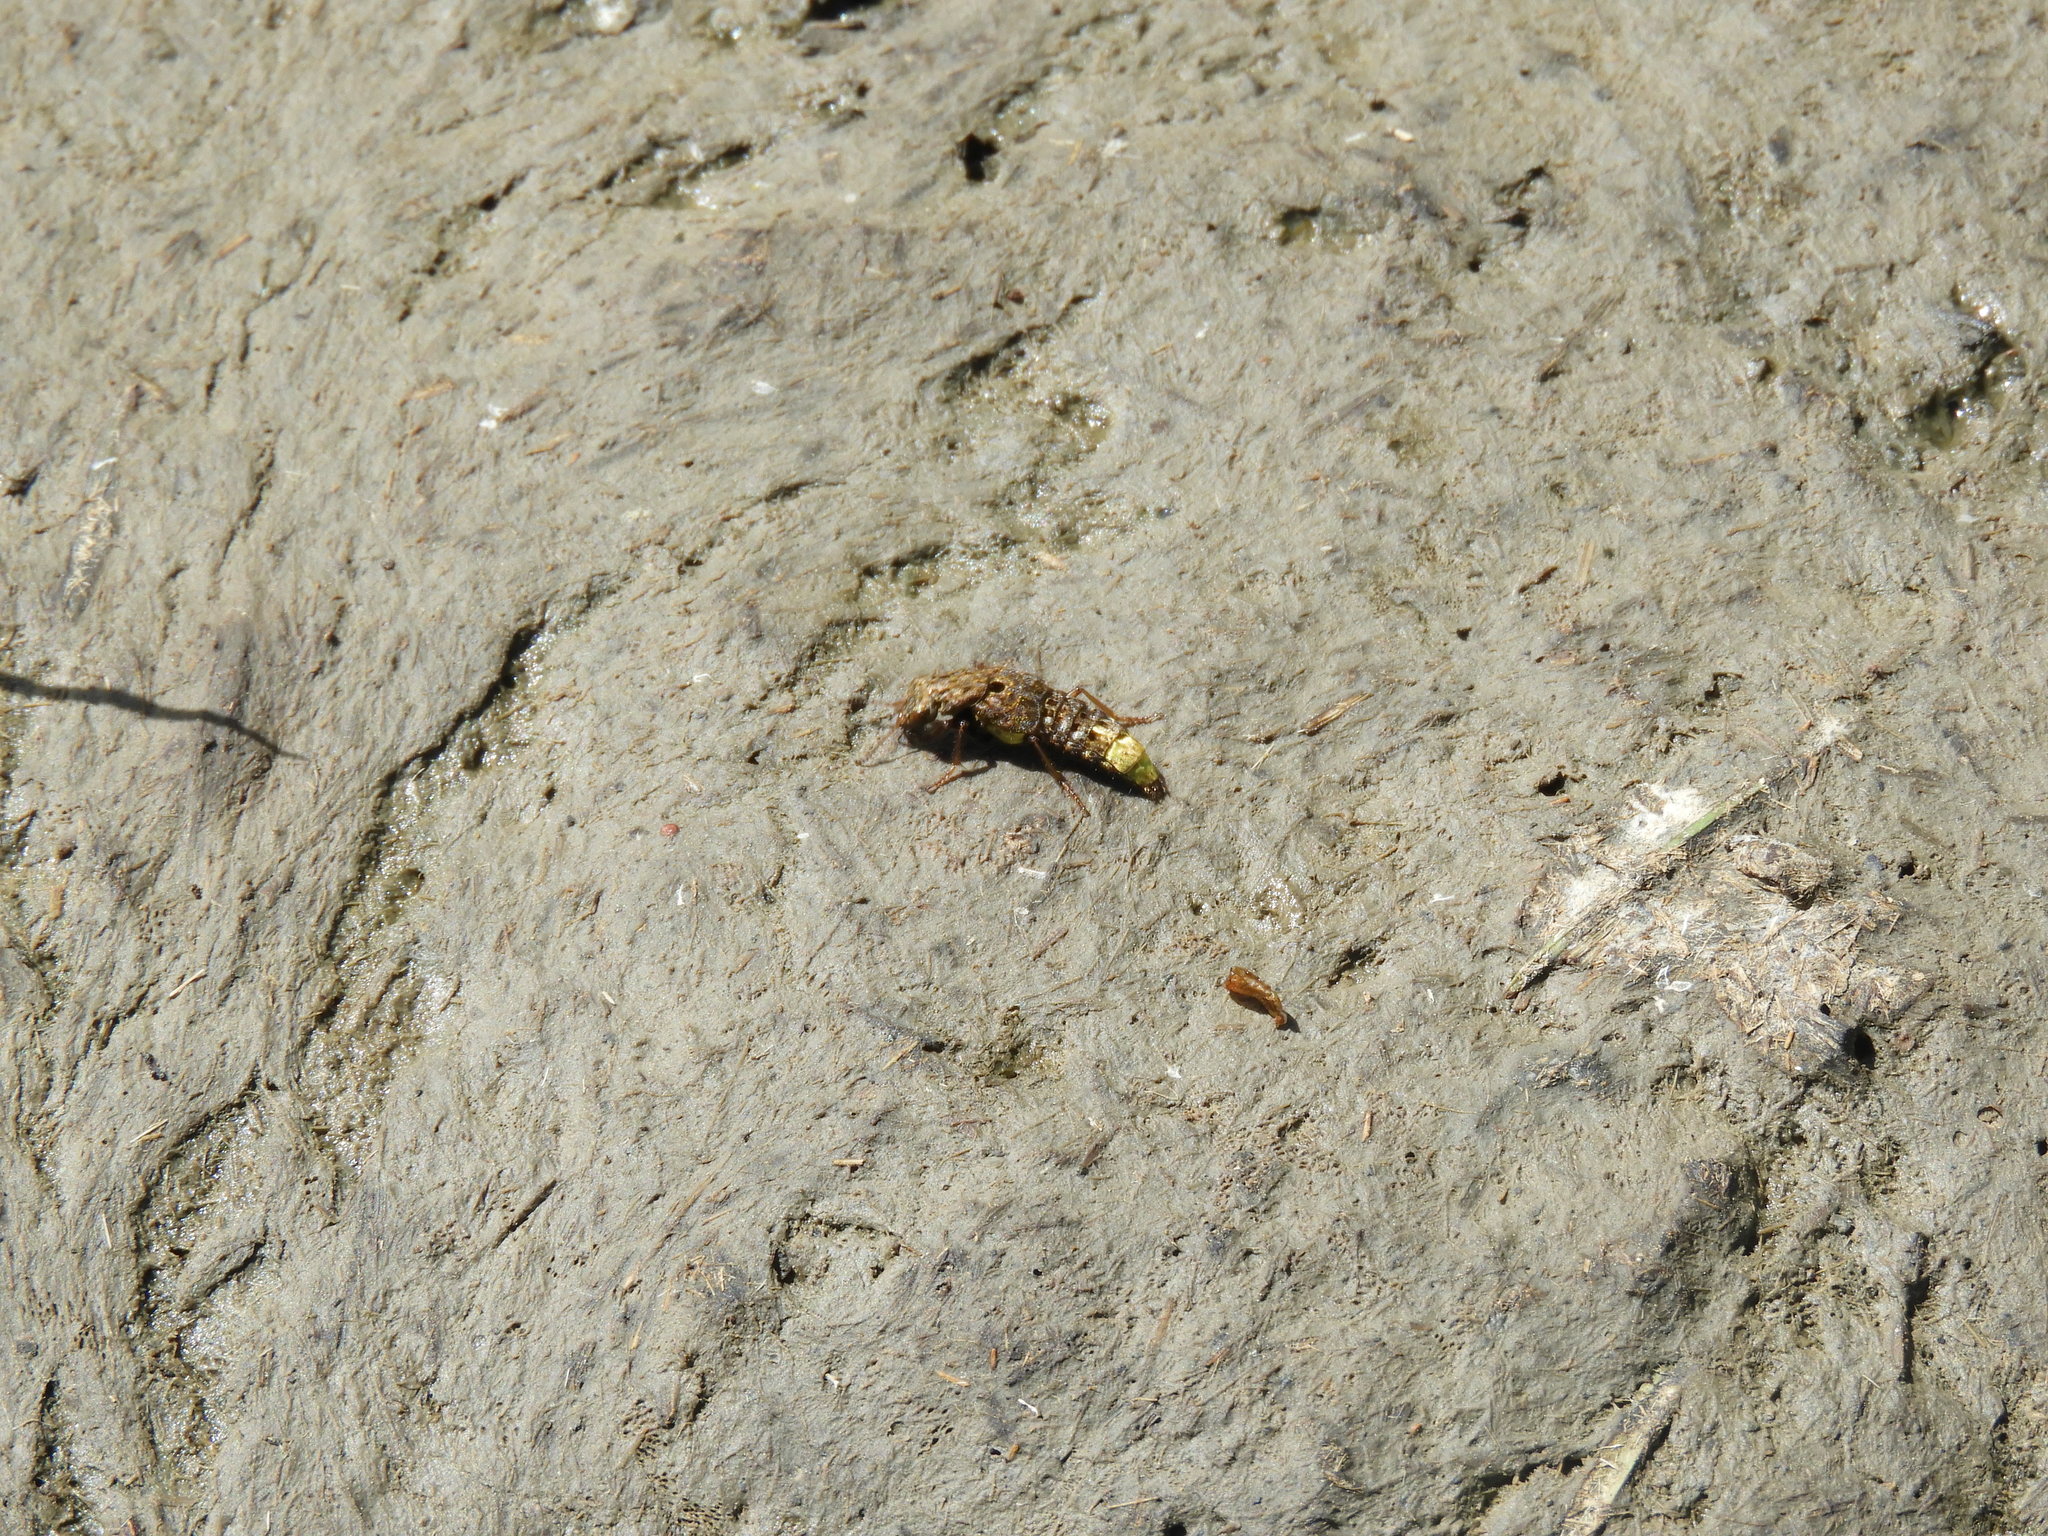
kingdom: Animalia
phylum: Arthropoda
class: Insecta
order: Coleoptera
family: Staphylinidae
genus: Ontholestes
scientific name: Ontholestes cingulatus
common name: Gold-and-brown rove beetle
